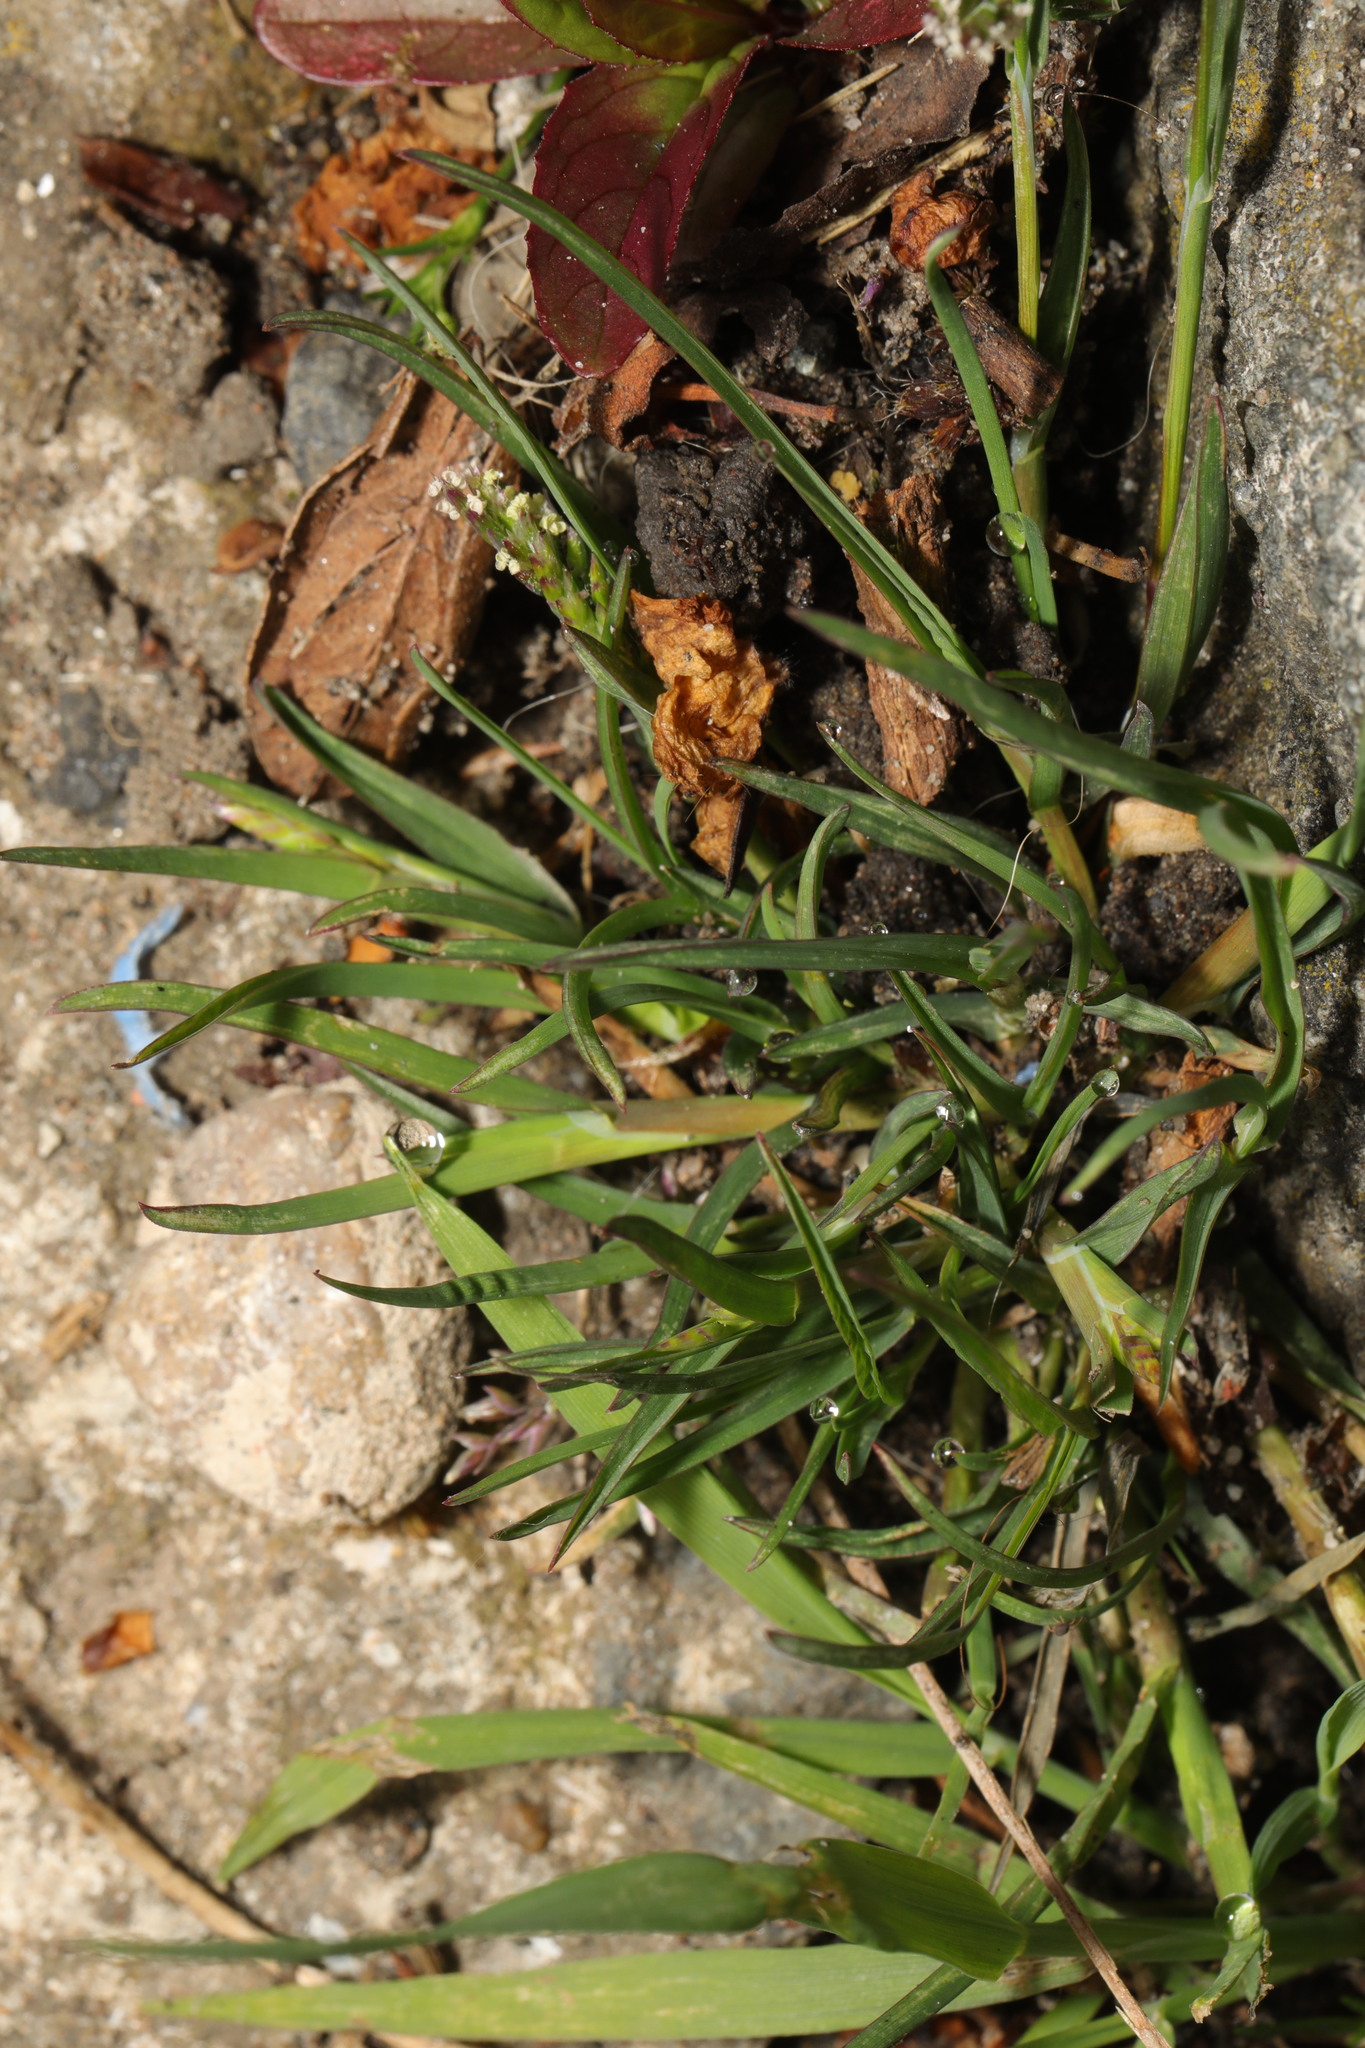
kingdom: Plantae
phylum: Tracheophyta
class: Liliopsida
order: Poales
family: Poaceae
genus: Poa
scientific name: Poa annua
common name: Annual bluegrass
